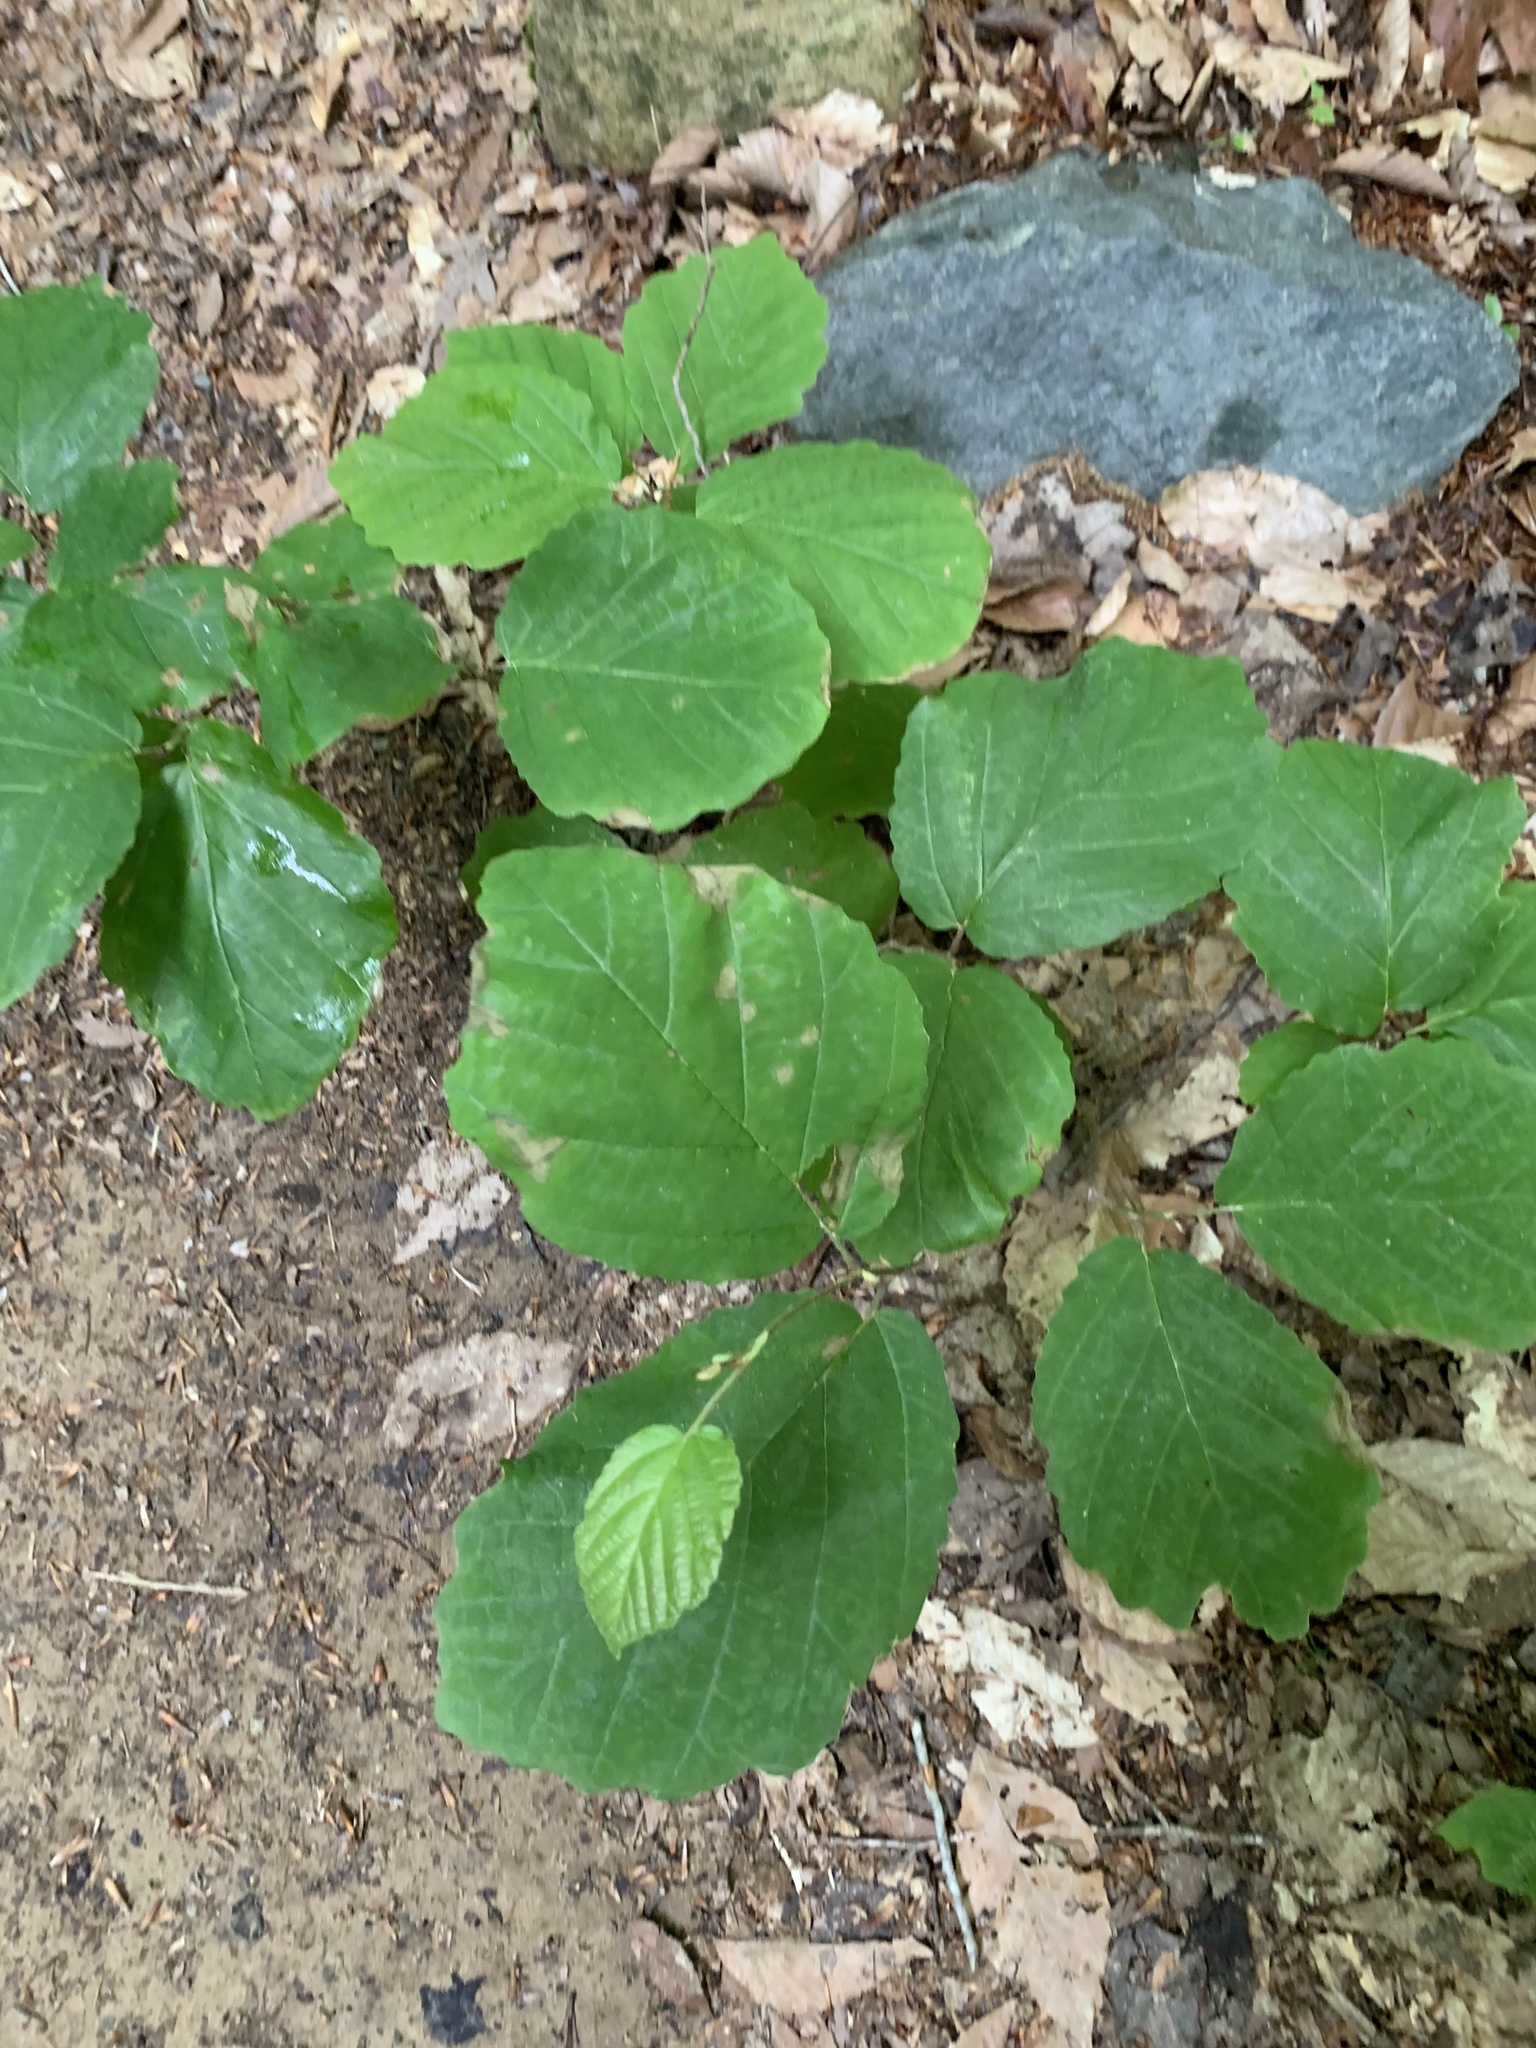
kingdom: Plantae
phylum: Tracheophyta
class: Magnoliopsida
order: Saxifragales
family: Hamamelidaceae
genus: Hamamelis
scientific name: Hamamelis virginiana
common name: Witch-hazel
